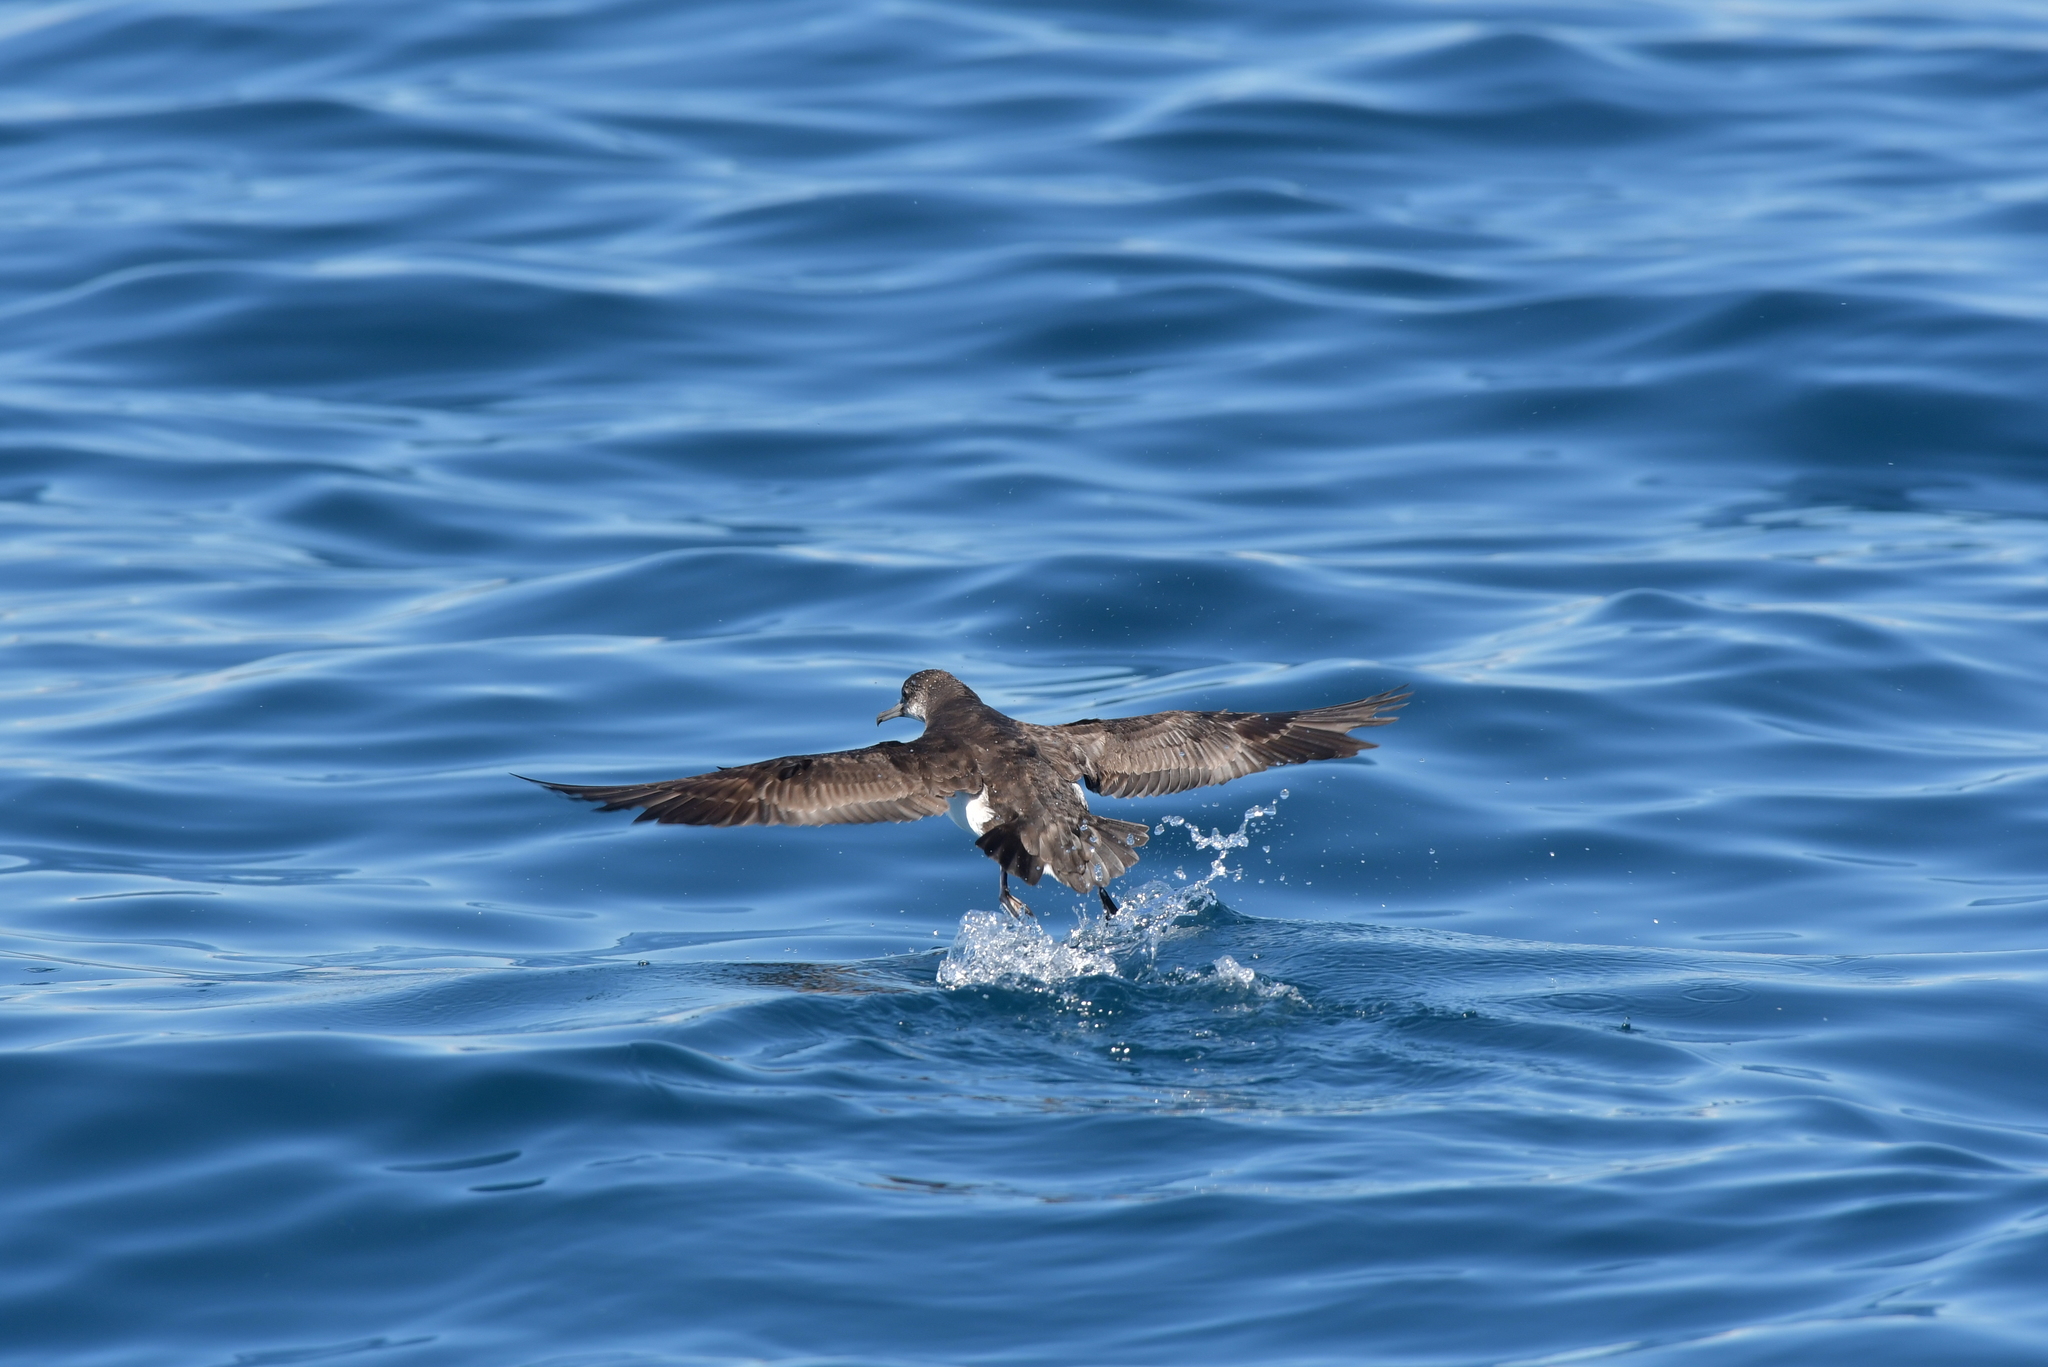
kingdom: Animalia
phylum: Chordata
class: Aves
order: Procellariiformes
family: Procellariidae
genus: Puffinus
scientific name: Puffinus gavia
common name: Fluttering shearwater
